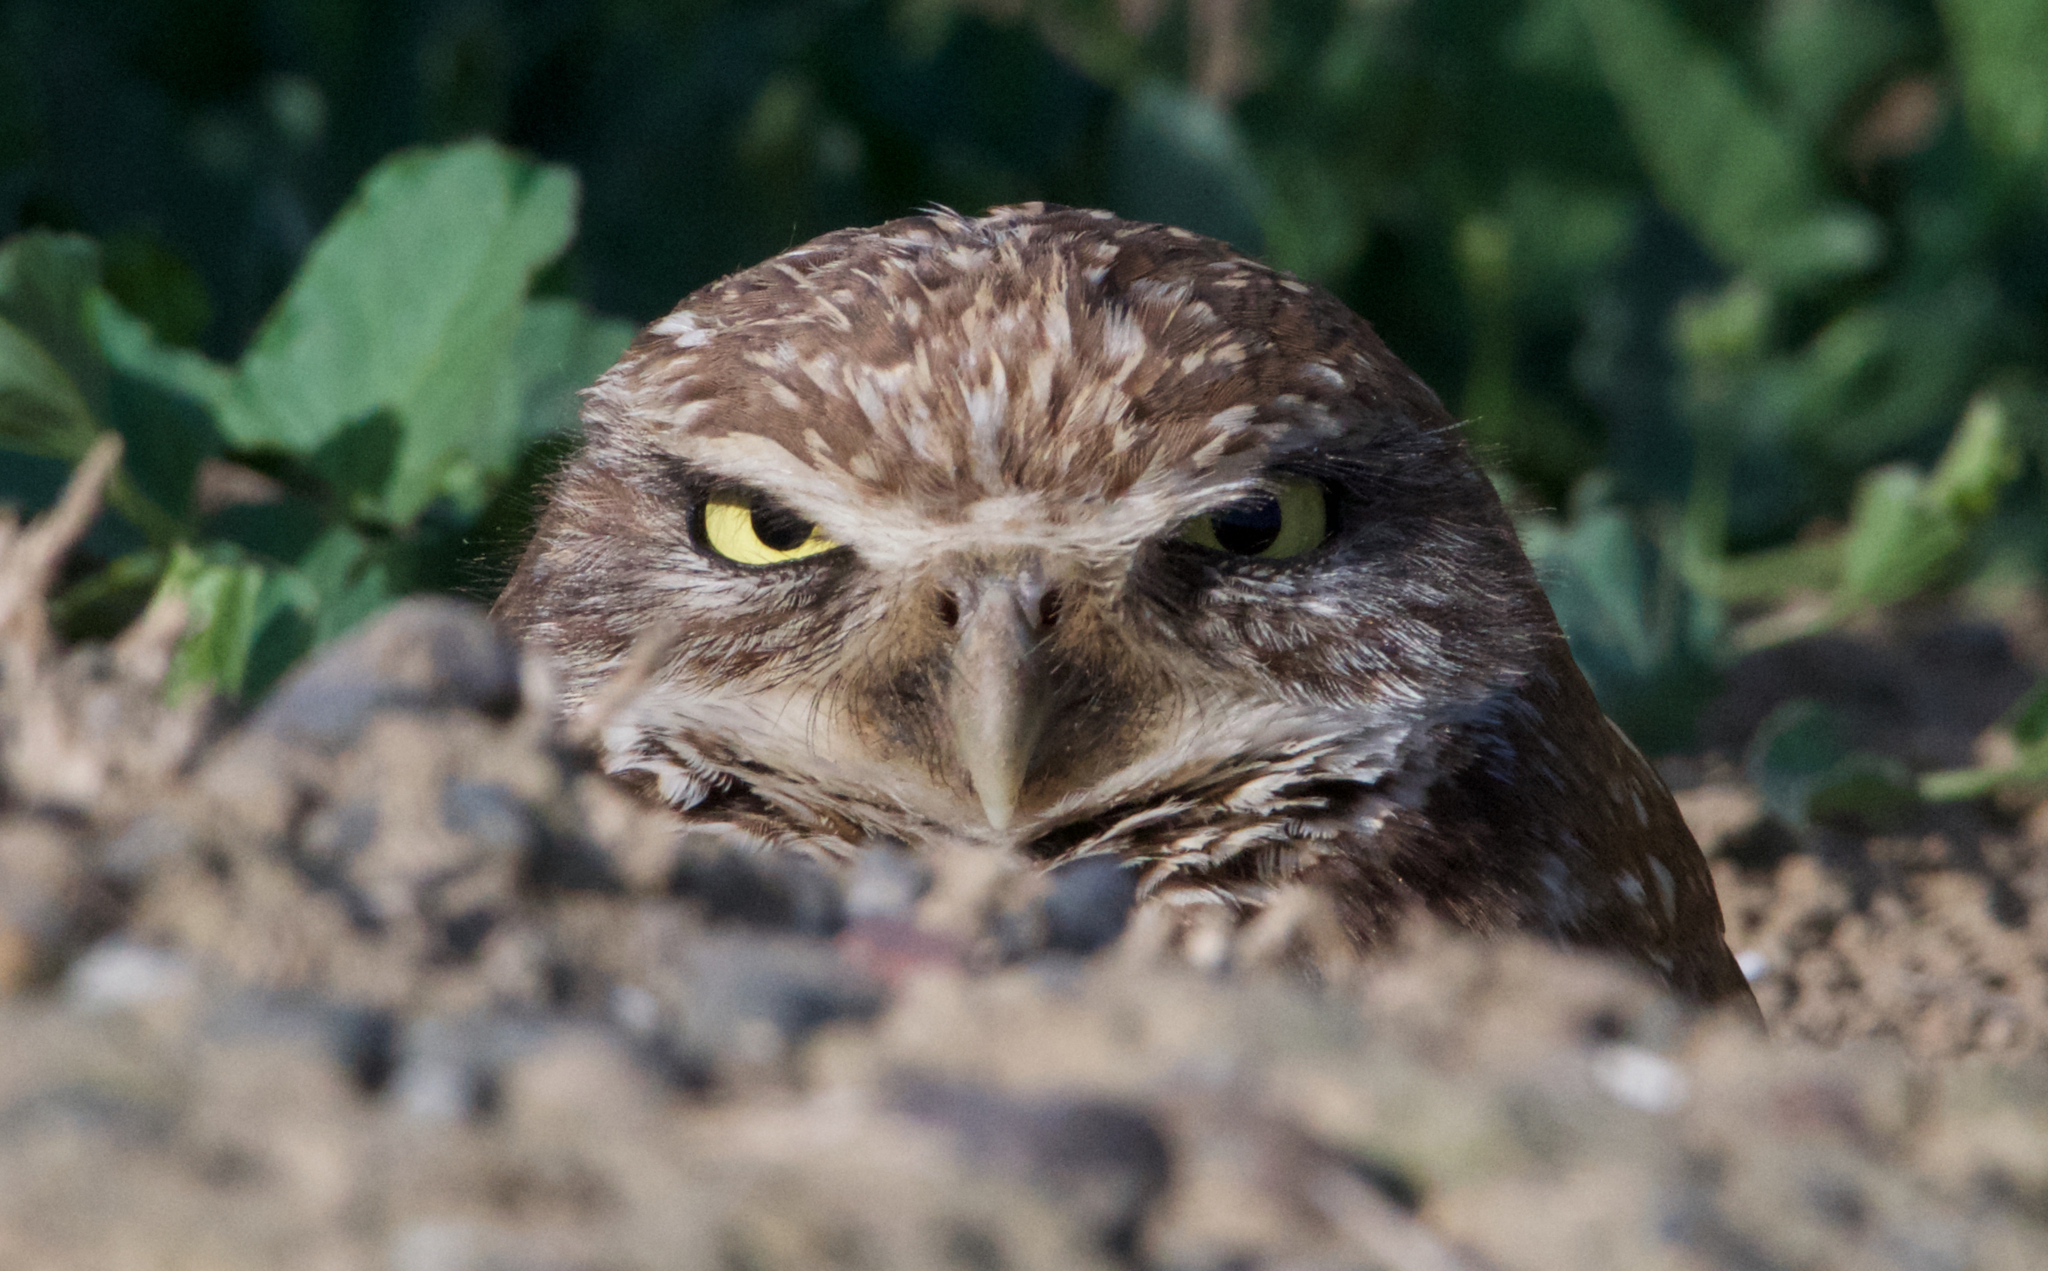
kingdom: Animalia
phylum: Chordata
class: Aves
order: Strigiformes
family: Strigidae
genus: Athene
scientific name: Athene cunicularia
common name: Burrowing owl
